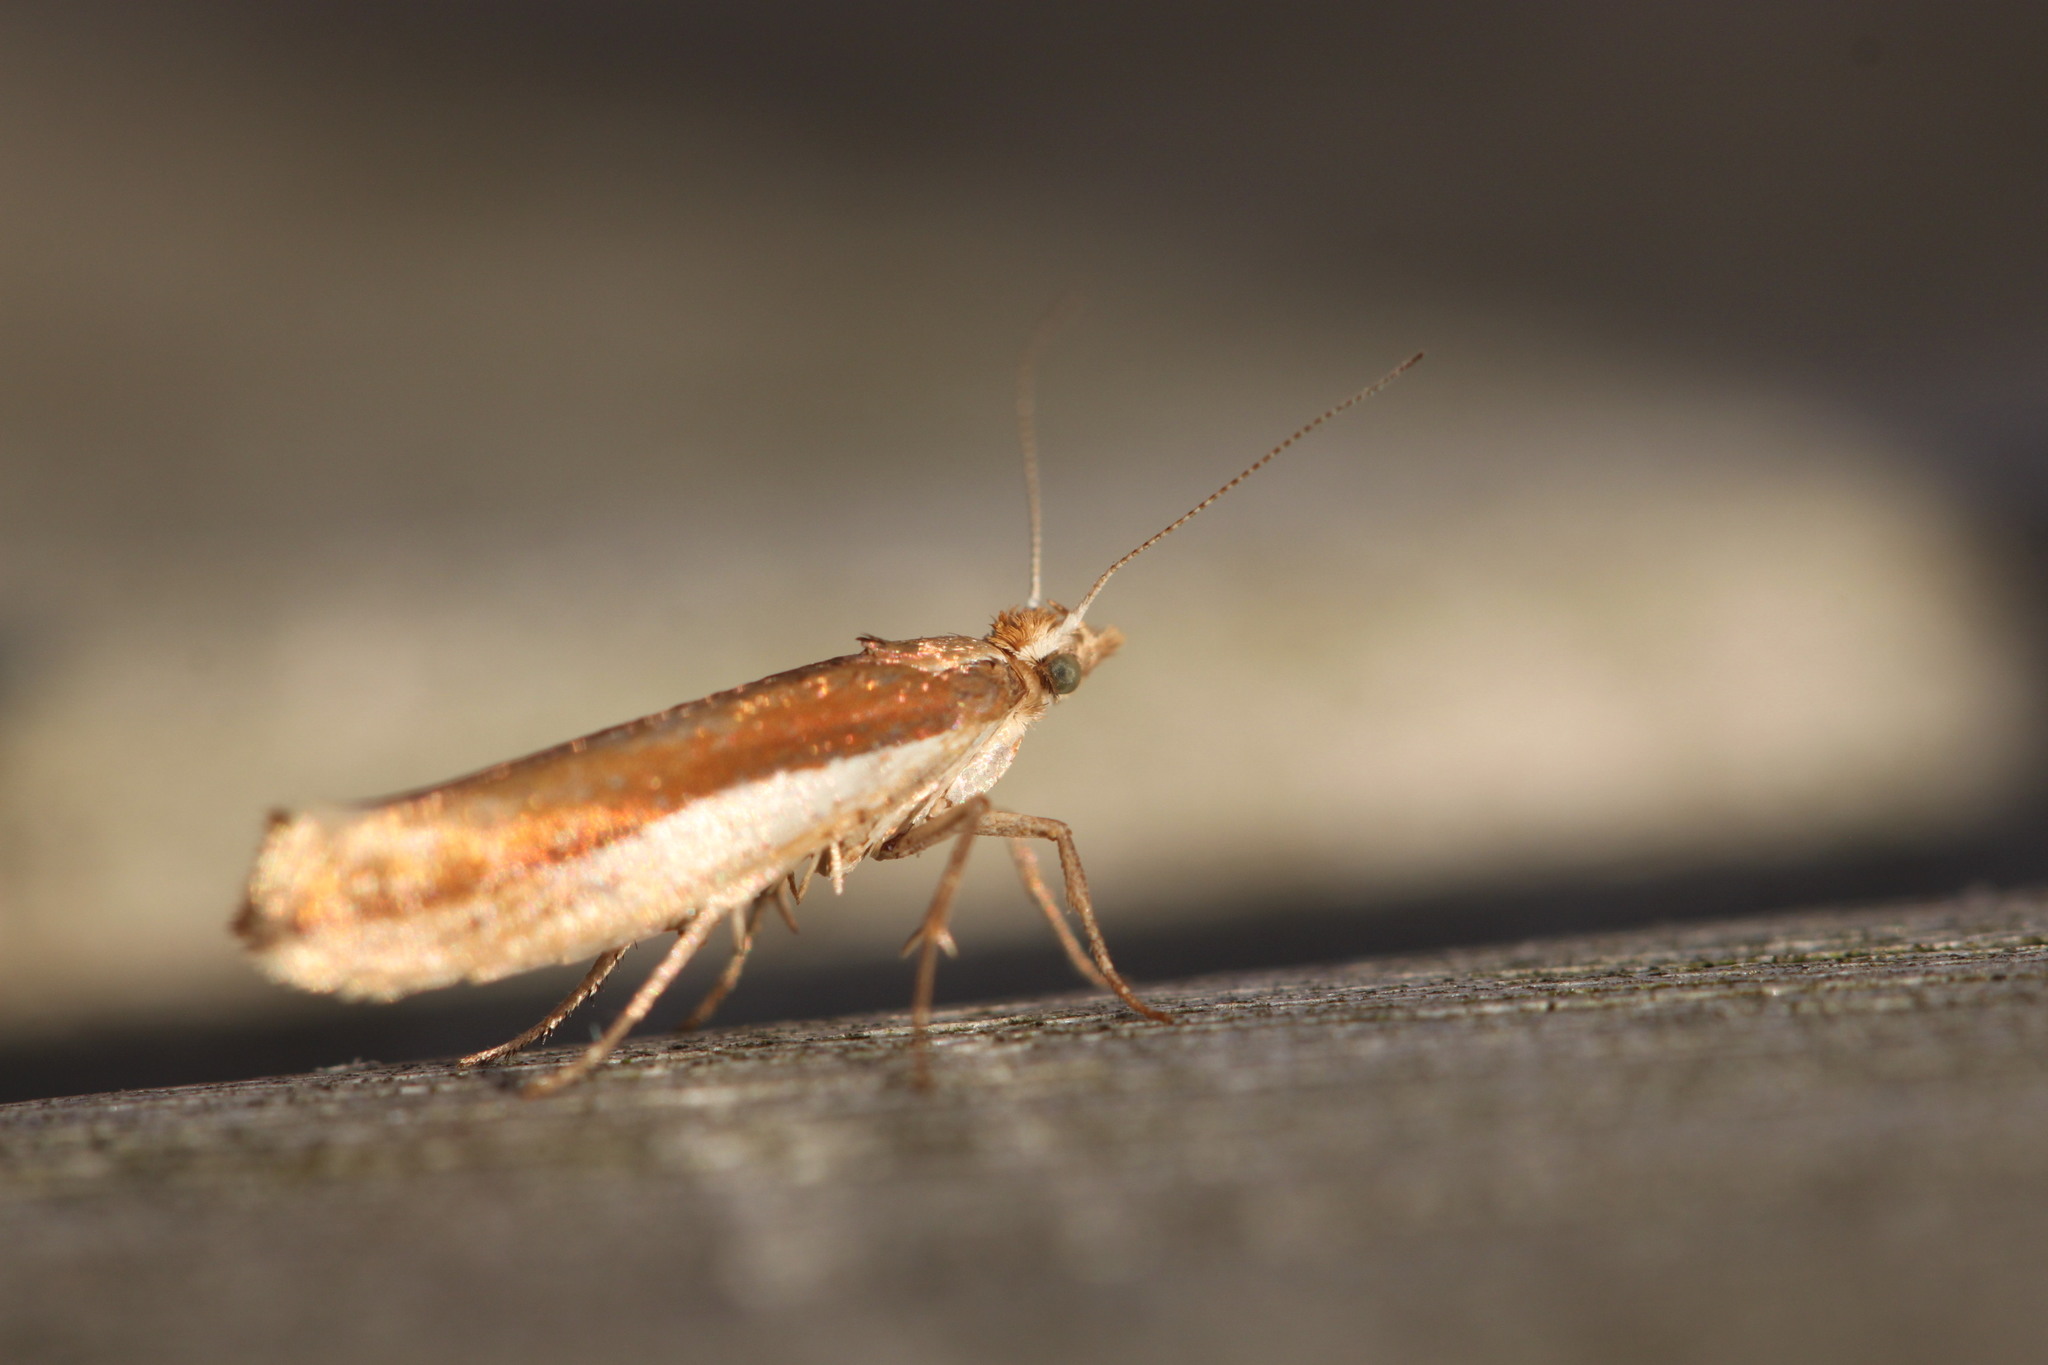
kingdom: Animalia
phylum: Arthropoda
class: Insecta
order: Lepidoptera
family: Ypsolophidae
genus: Ypsolopha
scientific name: Ypsolopha parenthesella
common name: White-shouldered smudge
